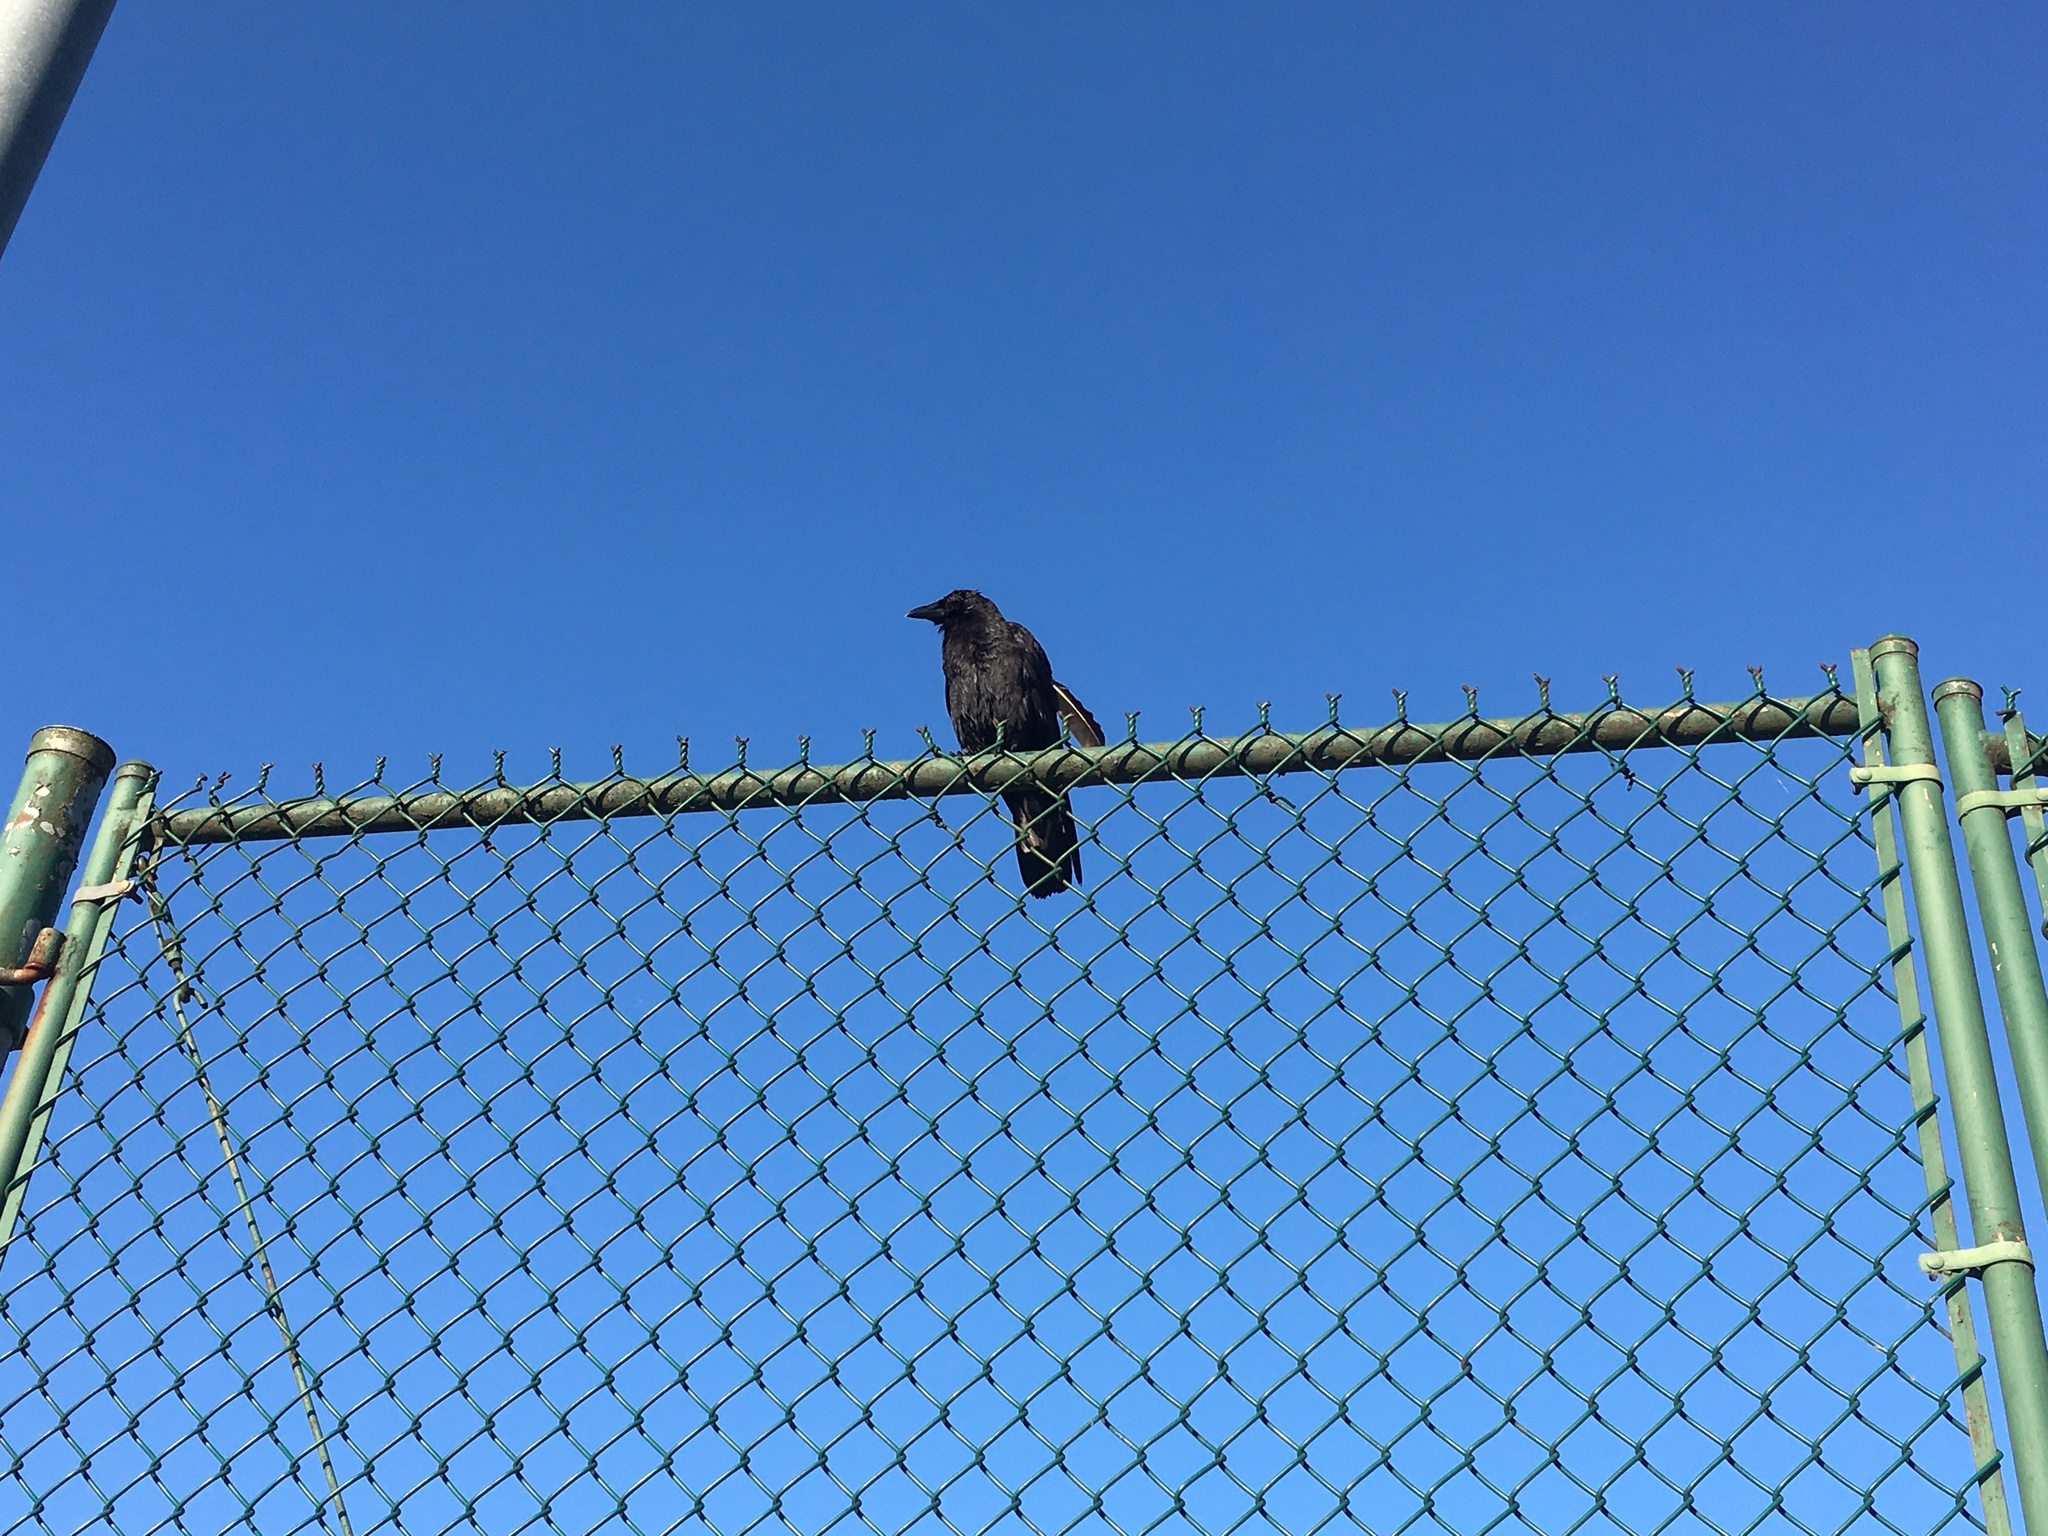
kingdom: Animalia
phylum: Chordata
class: Aves
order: Passeriformes
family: Corvidae
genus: Corvus
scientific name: Corvus brachyrhynchos
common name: American crow
